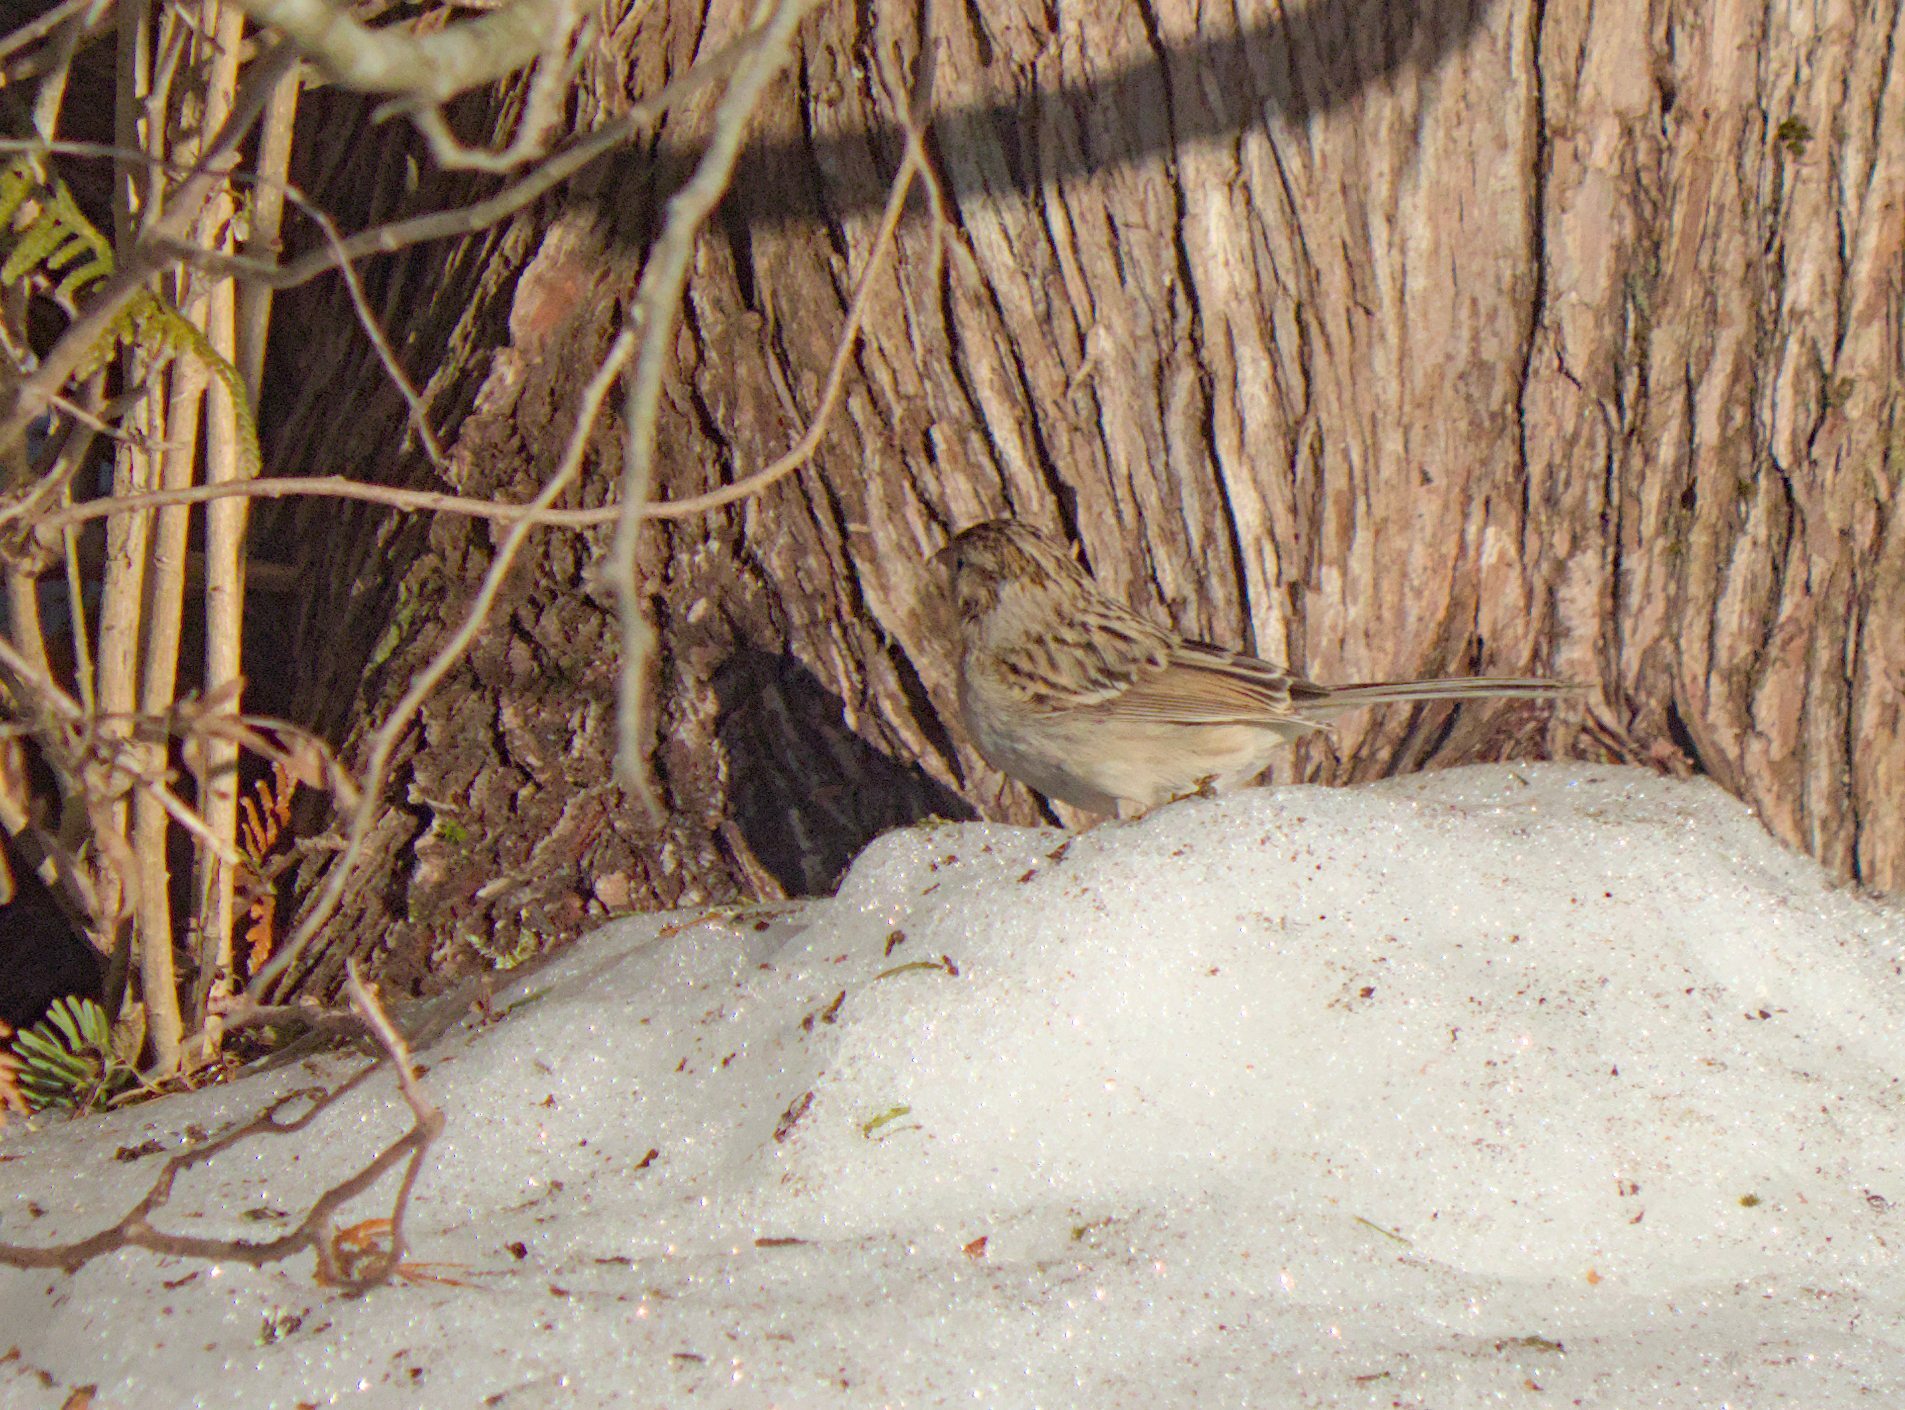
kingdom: Animalia
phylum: Chordata
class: Aves
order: Passeriformes
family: Passerellidae
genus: Spizella
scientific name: Spizella breweri
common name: Brewer's sparrow
